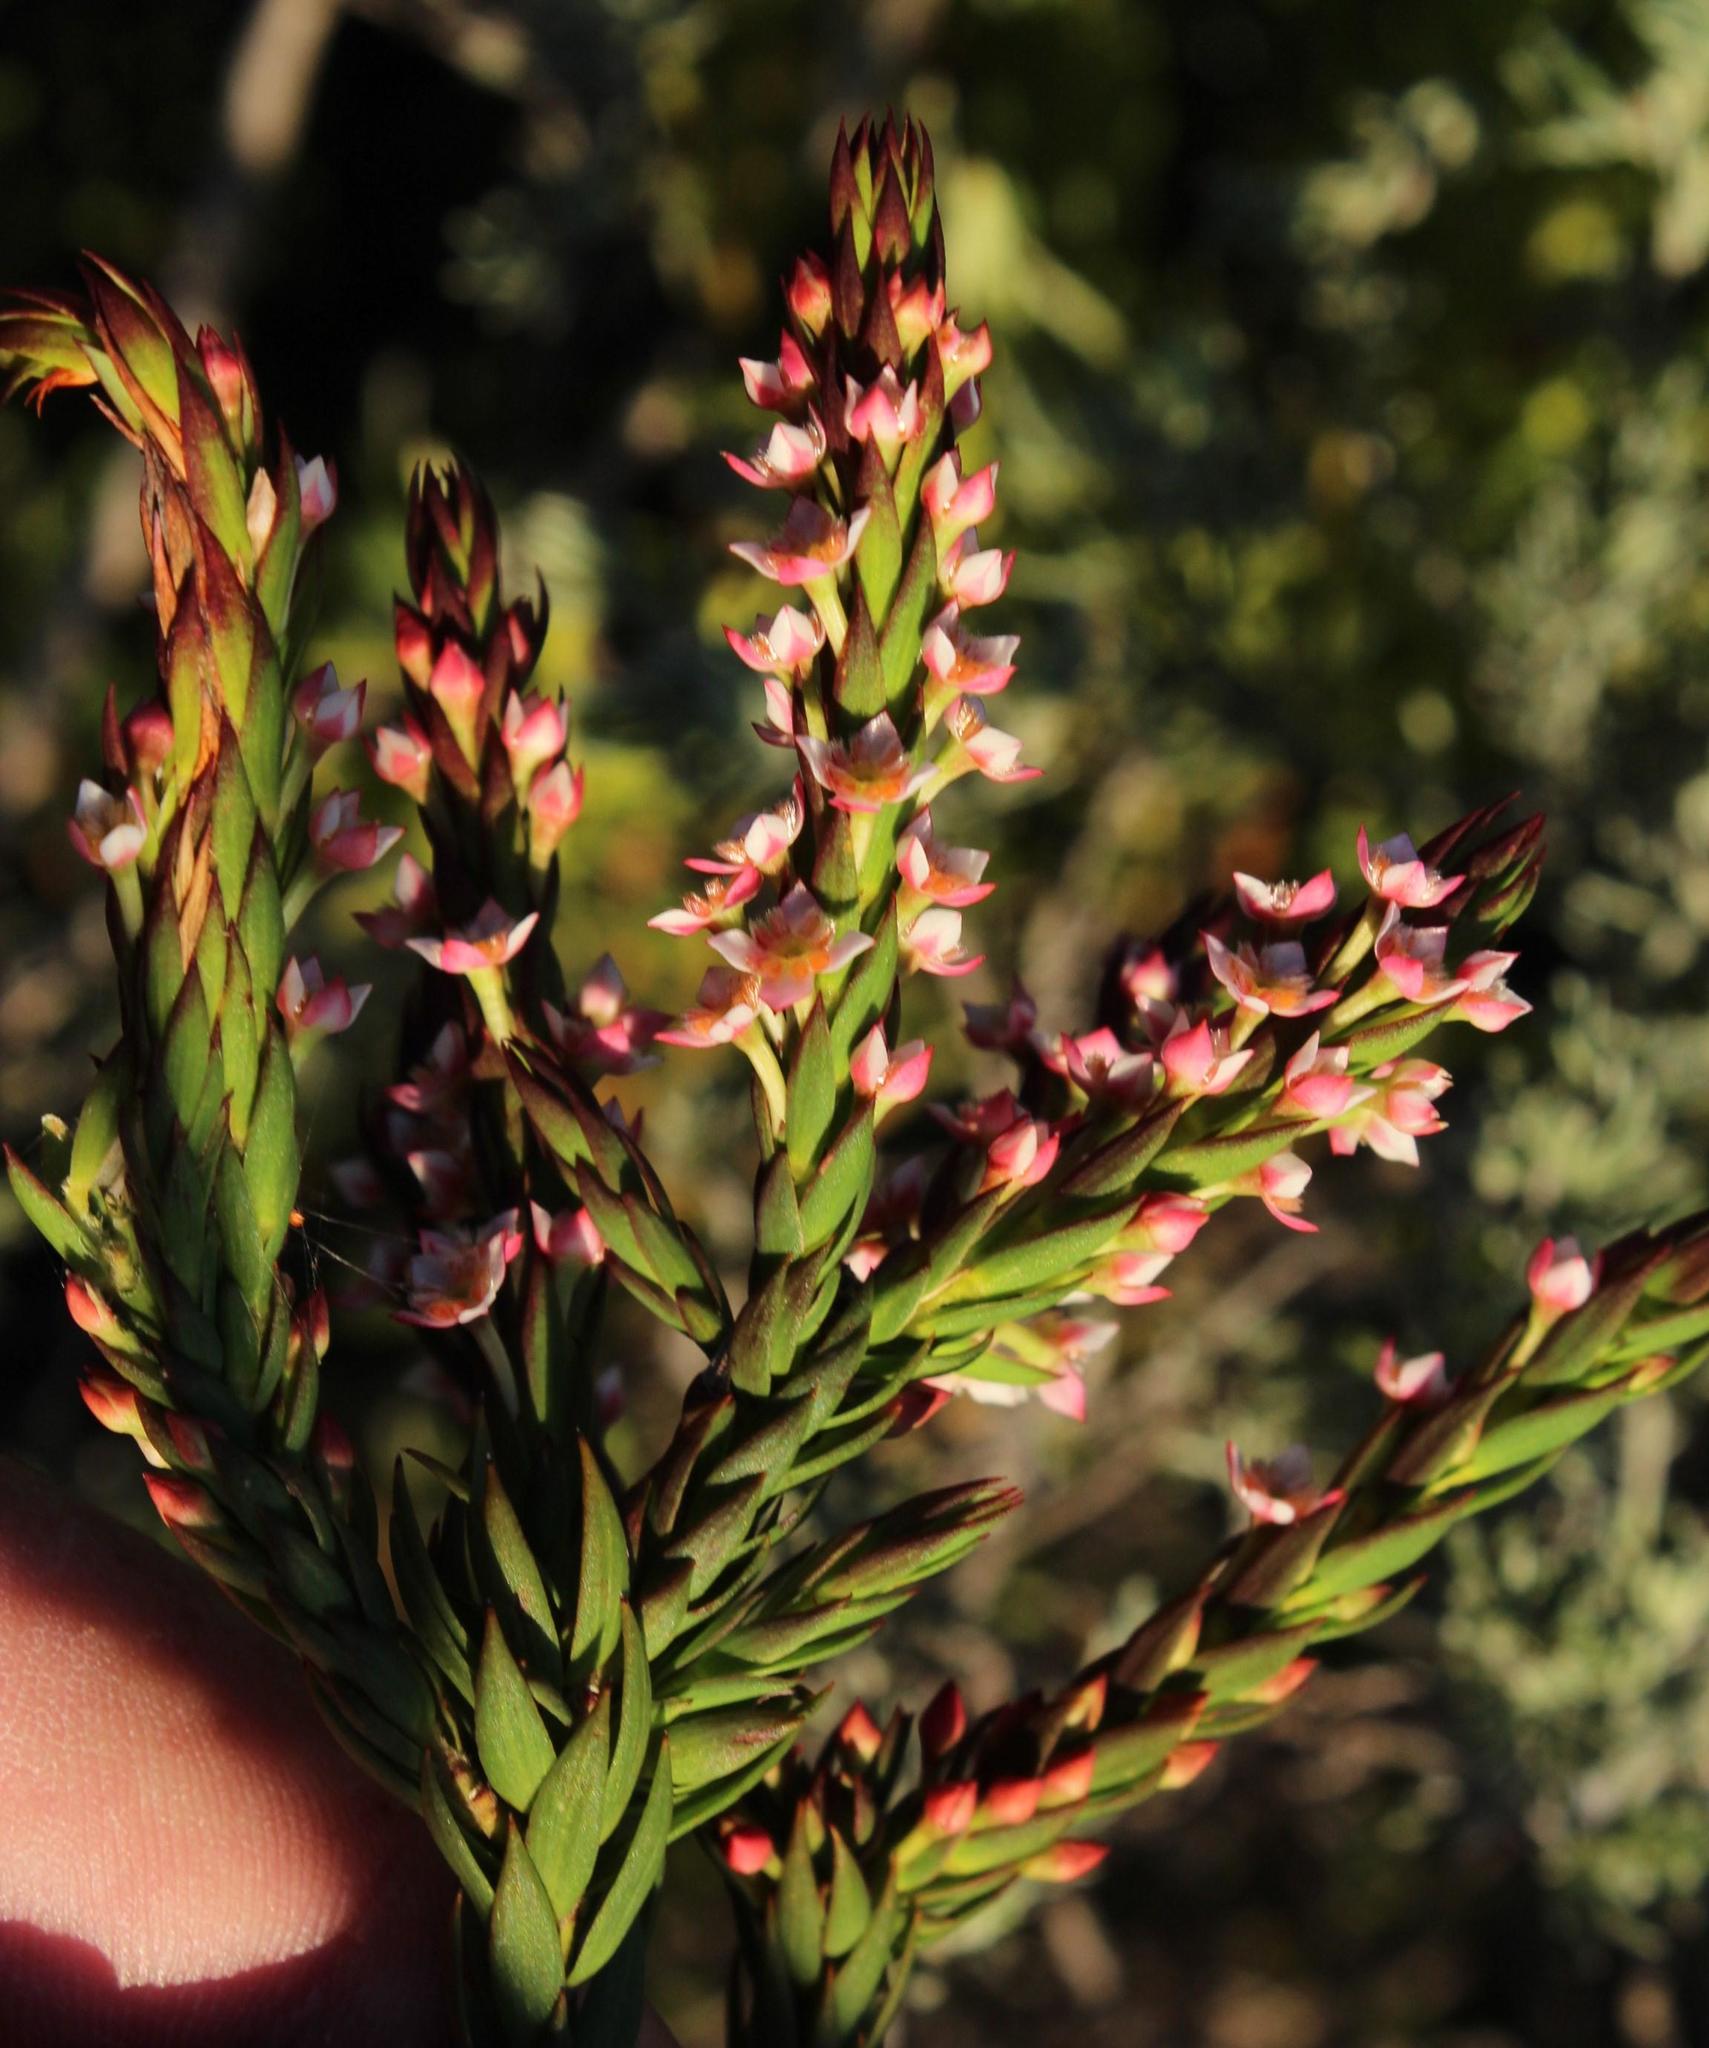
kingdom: Plantae
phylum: Tracheophyta
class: Magnoliopsida
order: Malvales
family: Thymelaeaceae
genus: Struthiola
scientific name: Struthiola salteri
